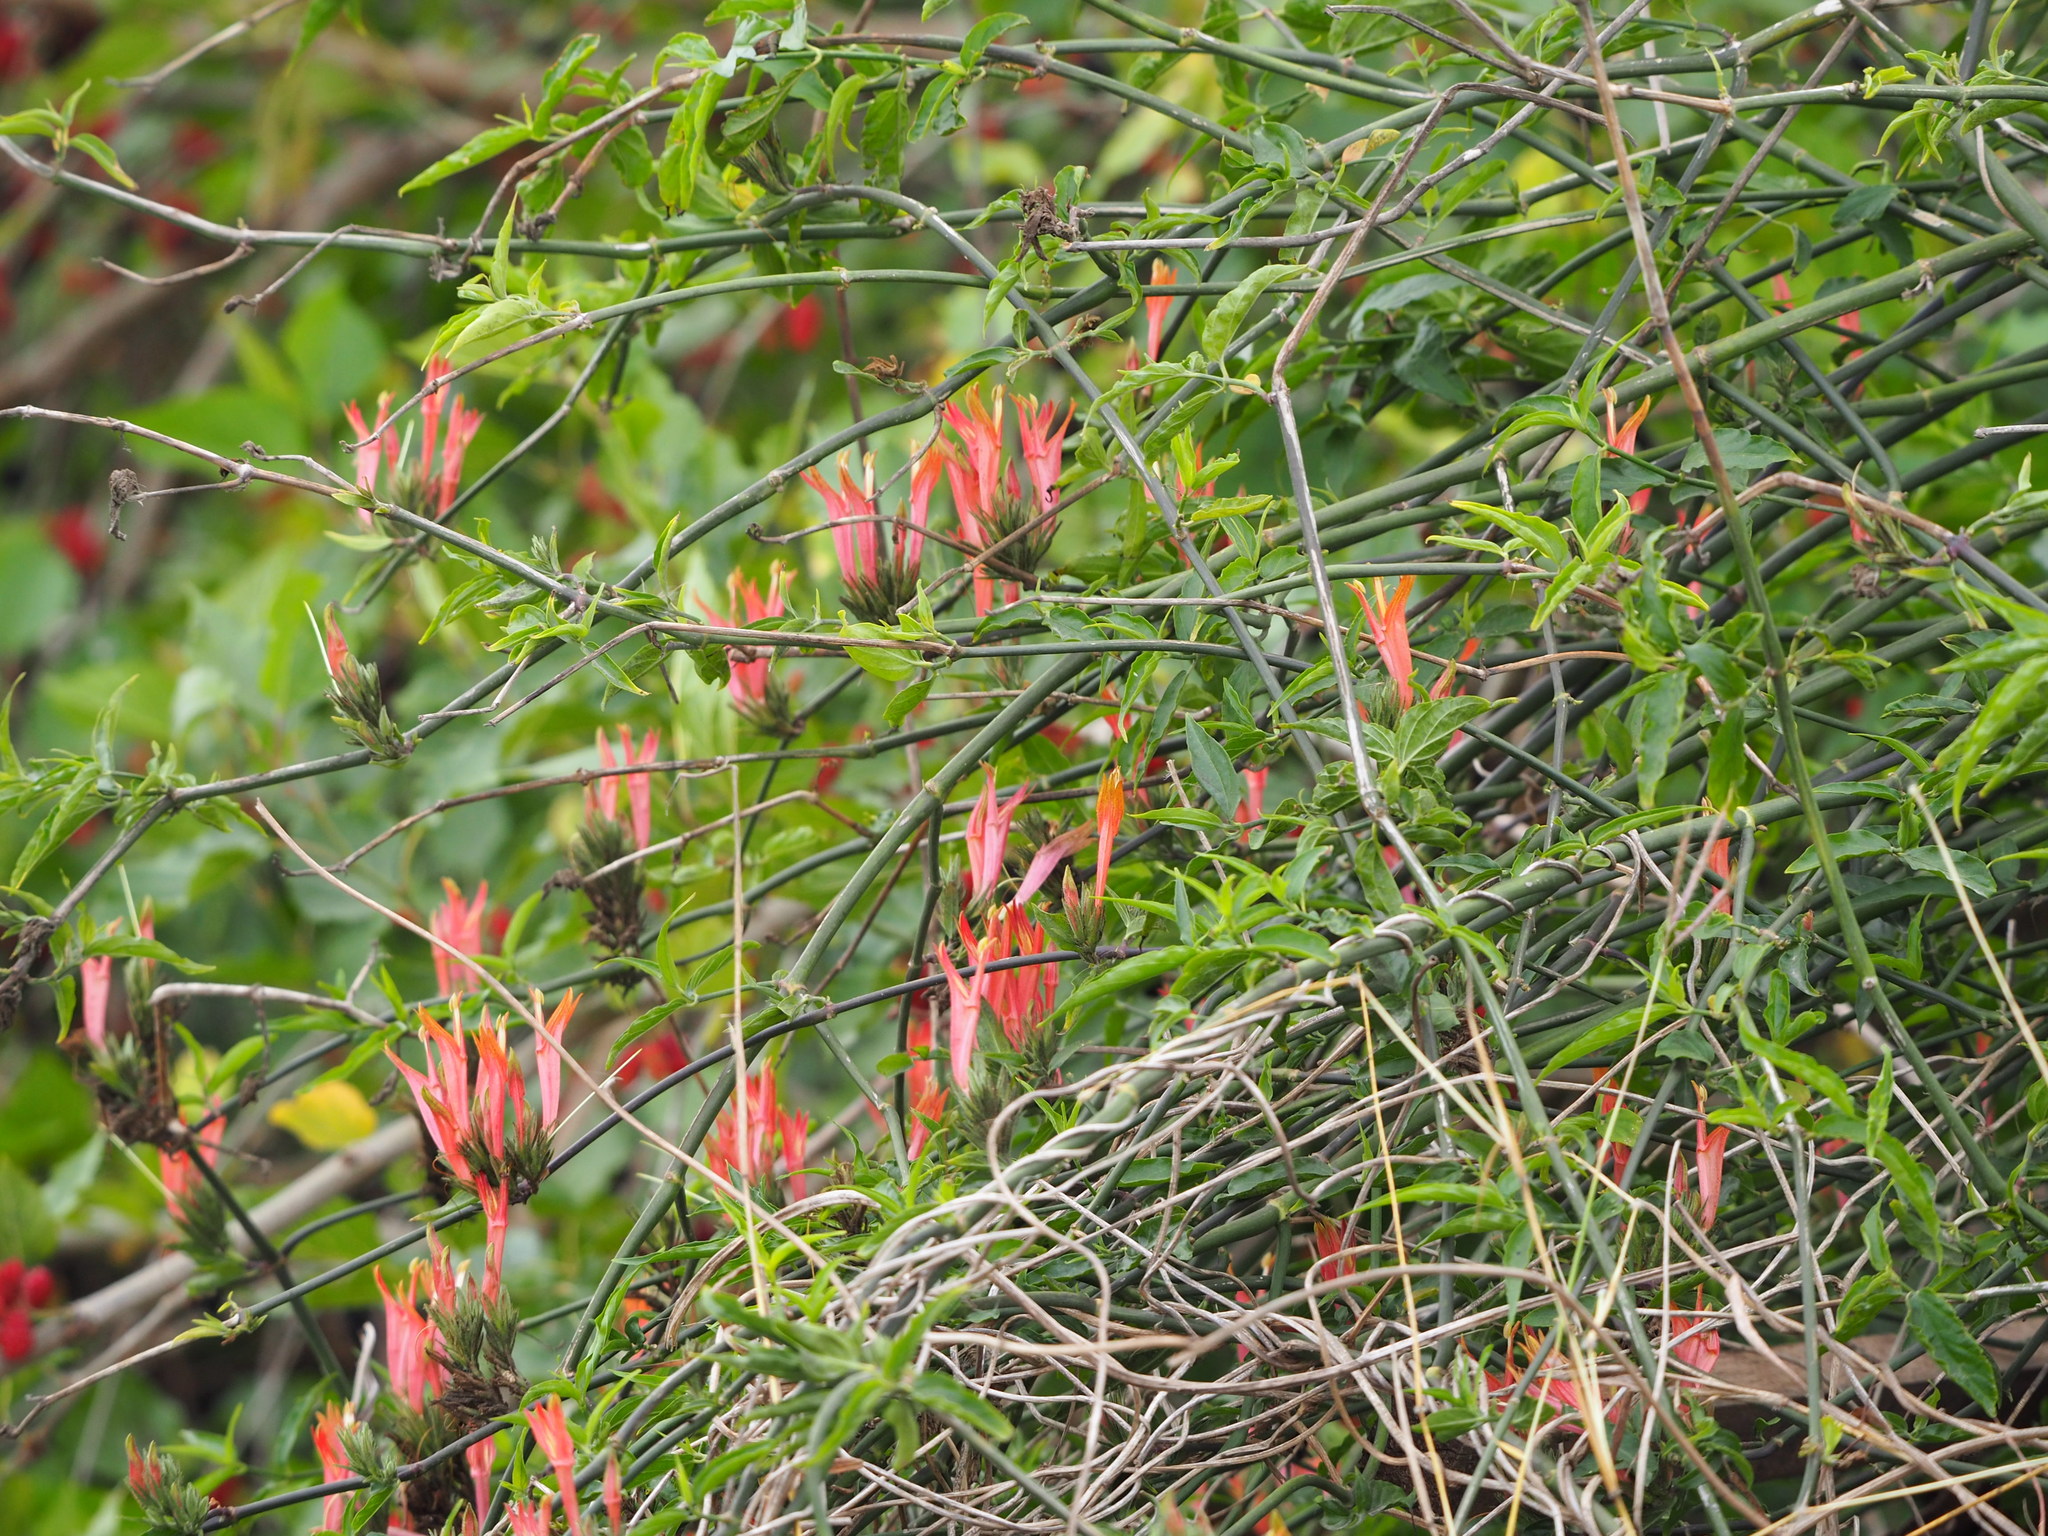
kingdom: Plantae
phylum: Tracheophyta
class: Magnoliopsida
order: Lamiales
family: Acanthaceae
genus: Clinacanthus
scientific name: Clinacanthus nutans
